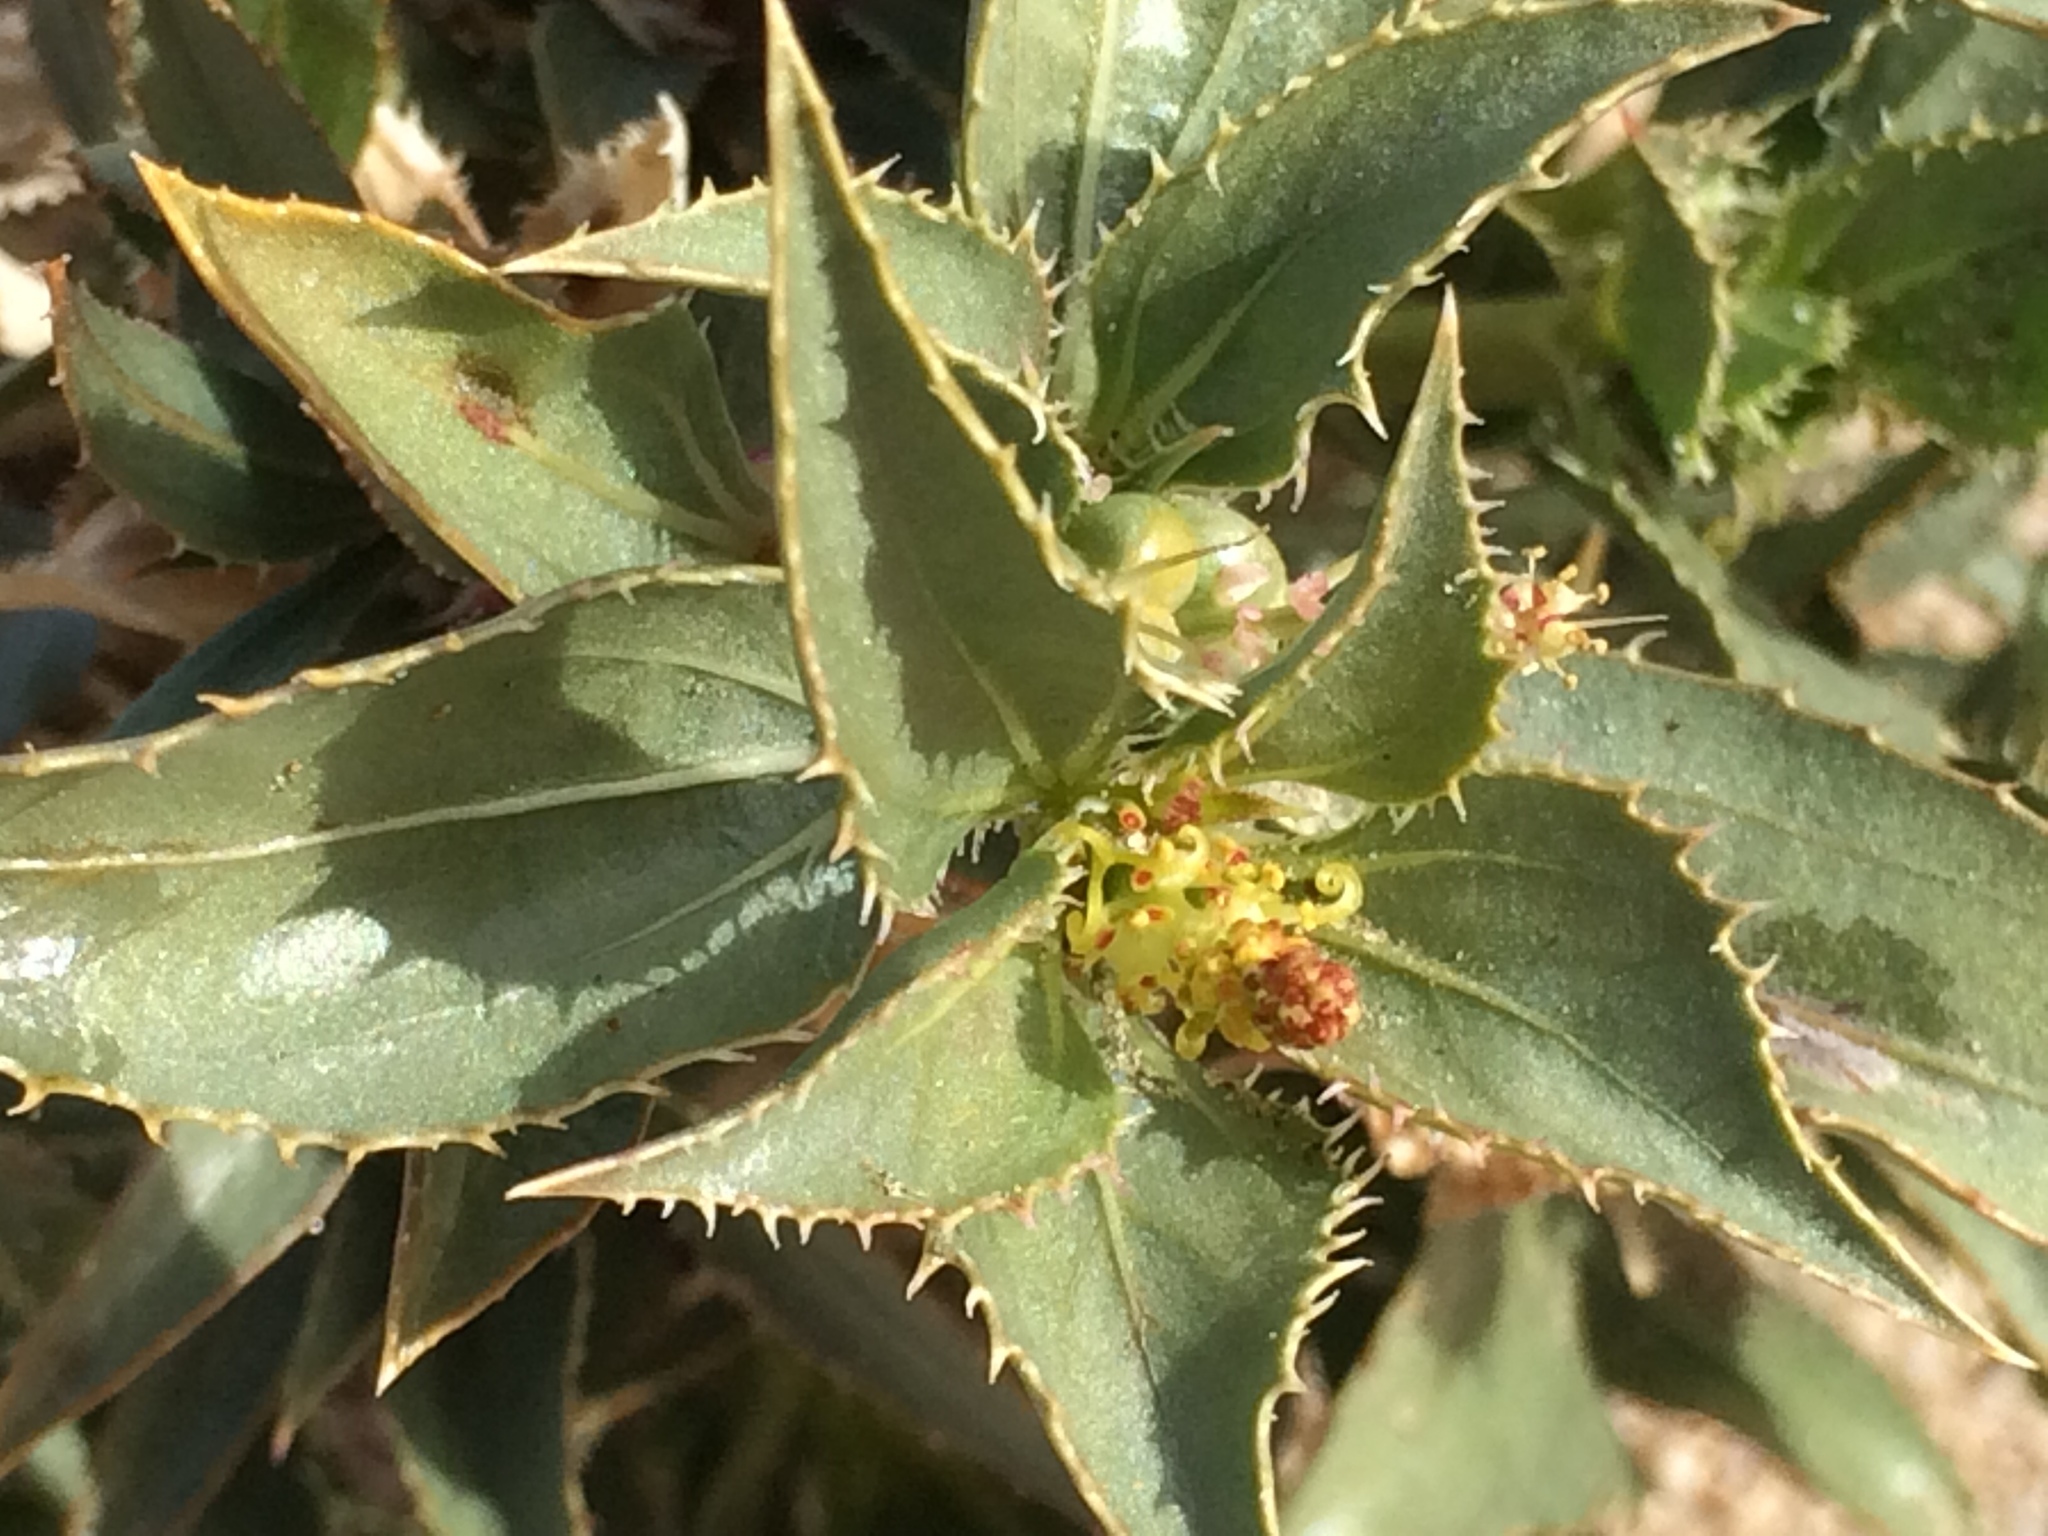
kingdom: Plantae
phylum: Tracheophyta
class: Magnoliopsida
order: Malpighiales
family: Euphorbiaceae
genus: Stillingia
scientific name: Stillingia spinulosa
